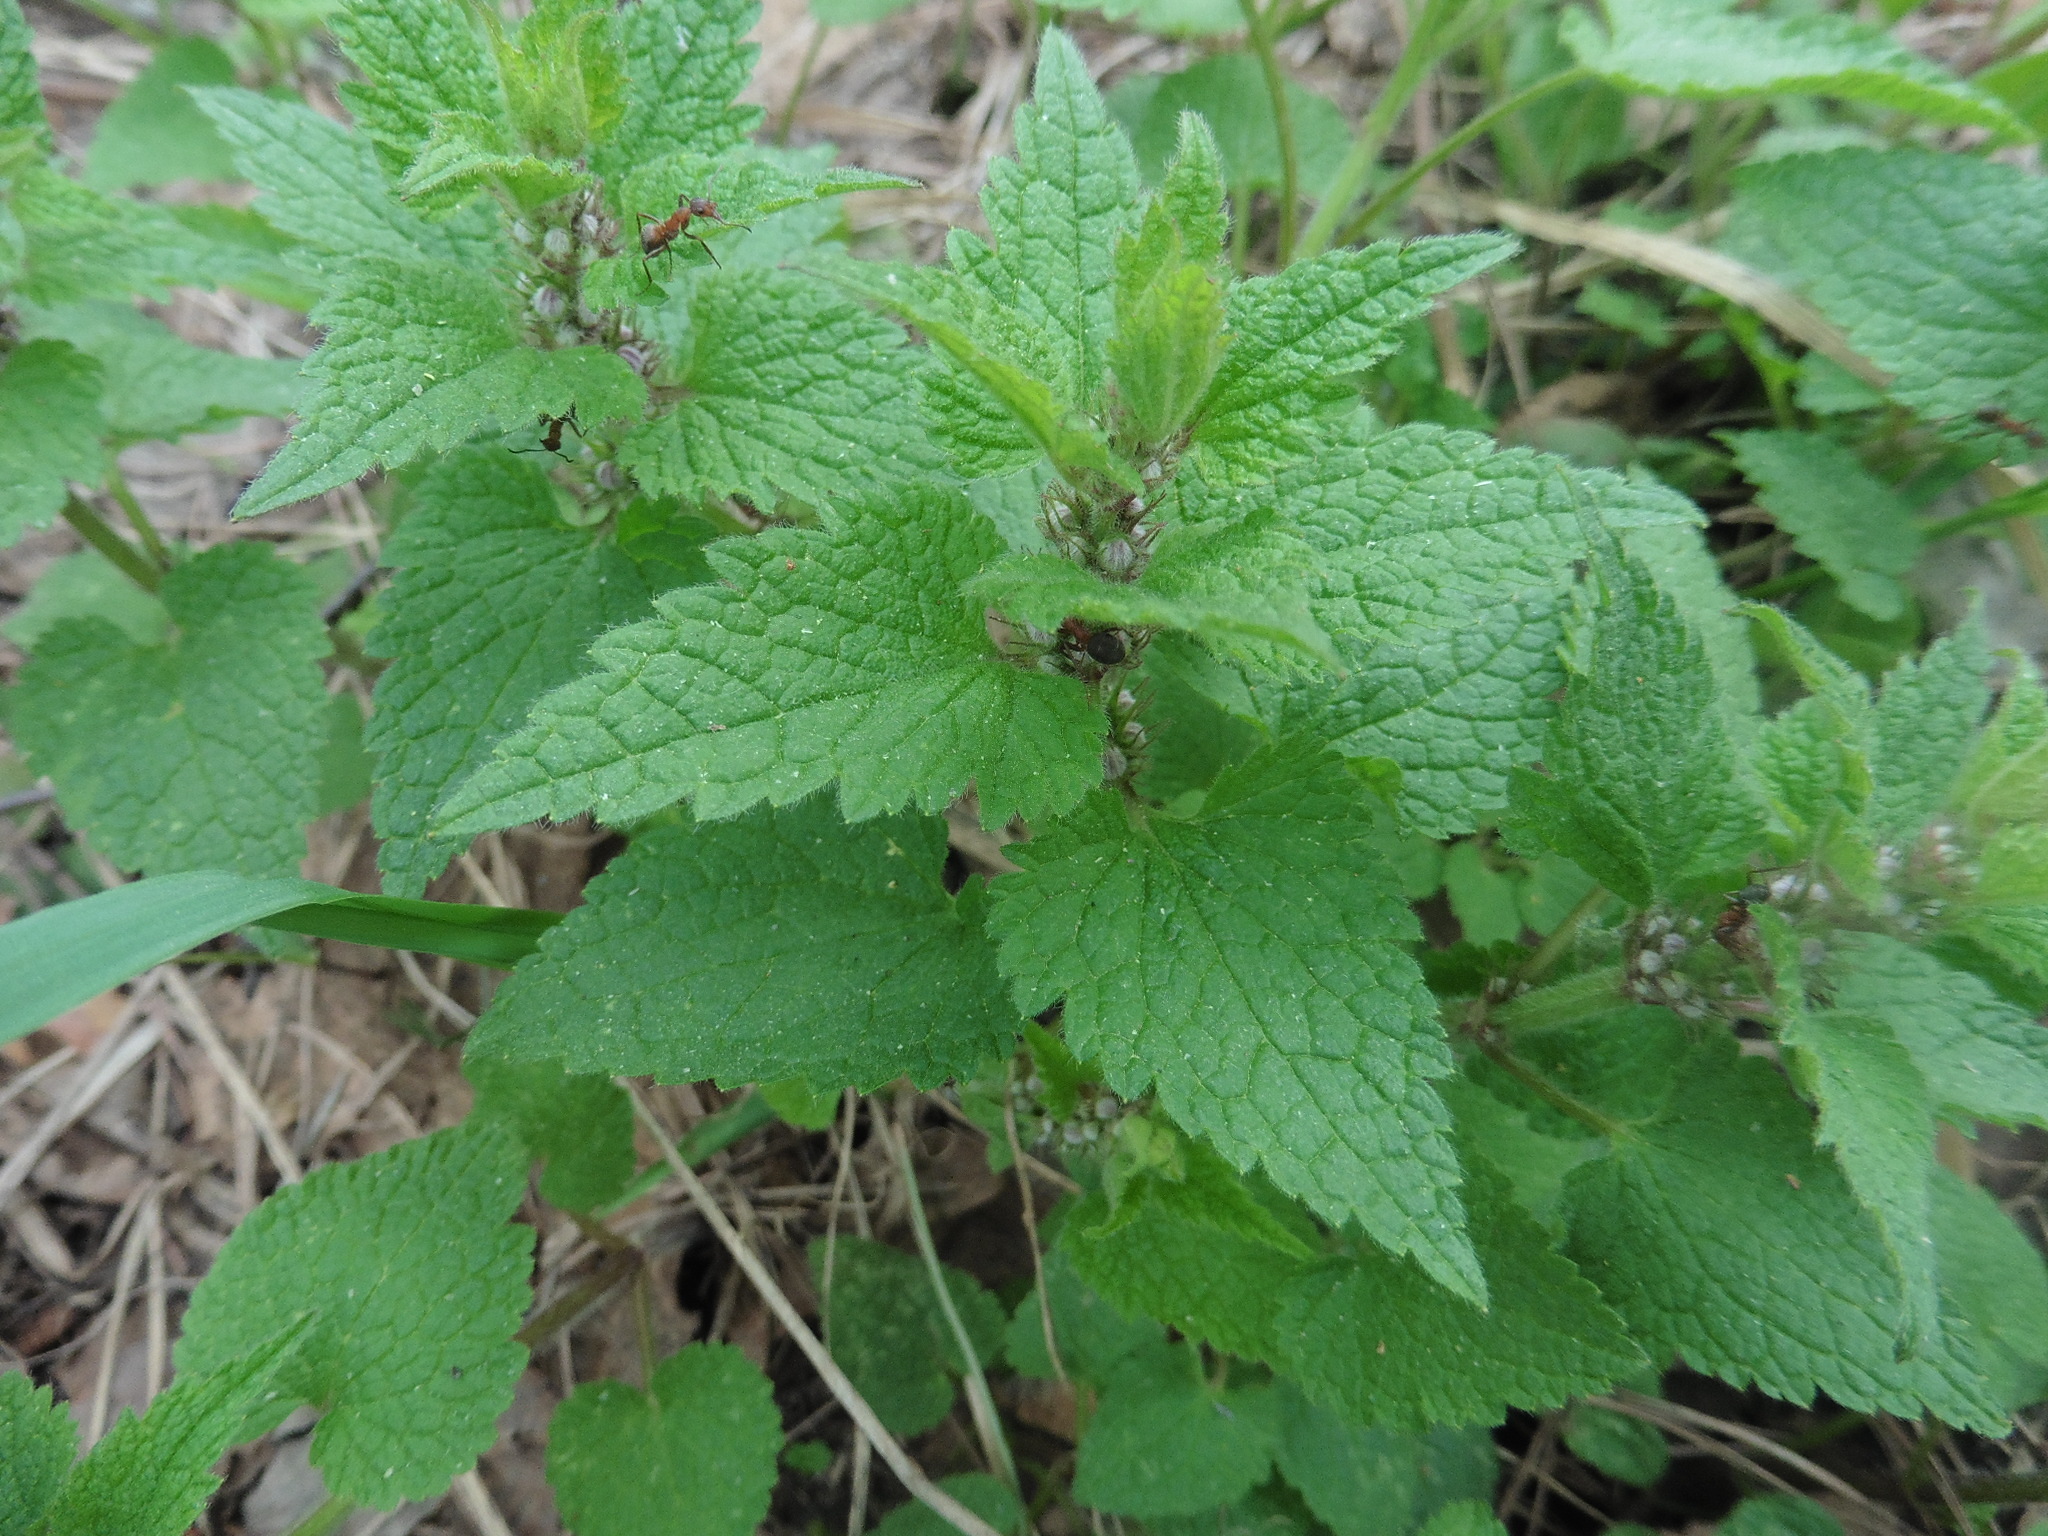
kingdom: Plantae
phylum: Tracheophyta
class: Magnoliopsida
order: Lamiales
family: Lamiaceae
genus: Lamium
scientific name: Lamium maculatum
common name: Spotted dead-nettle
